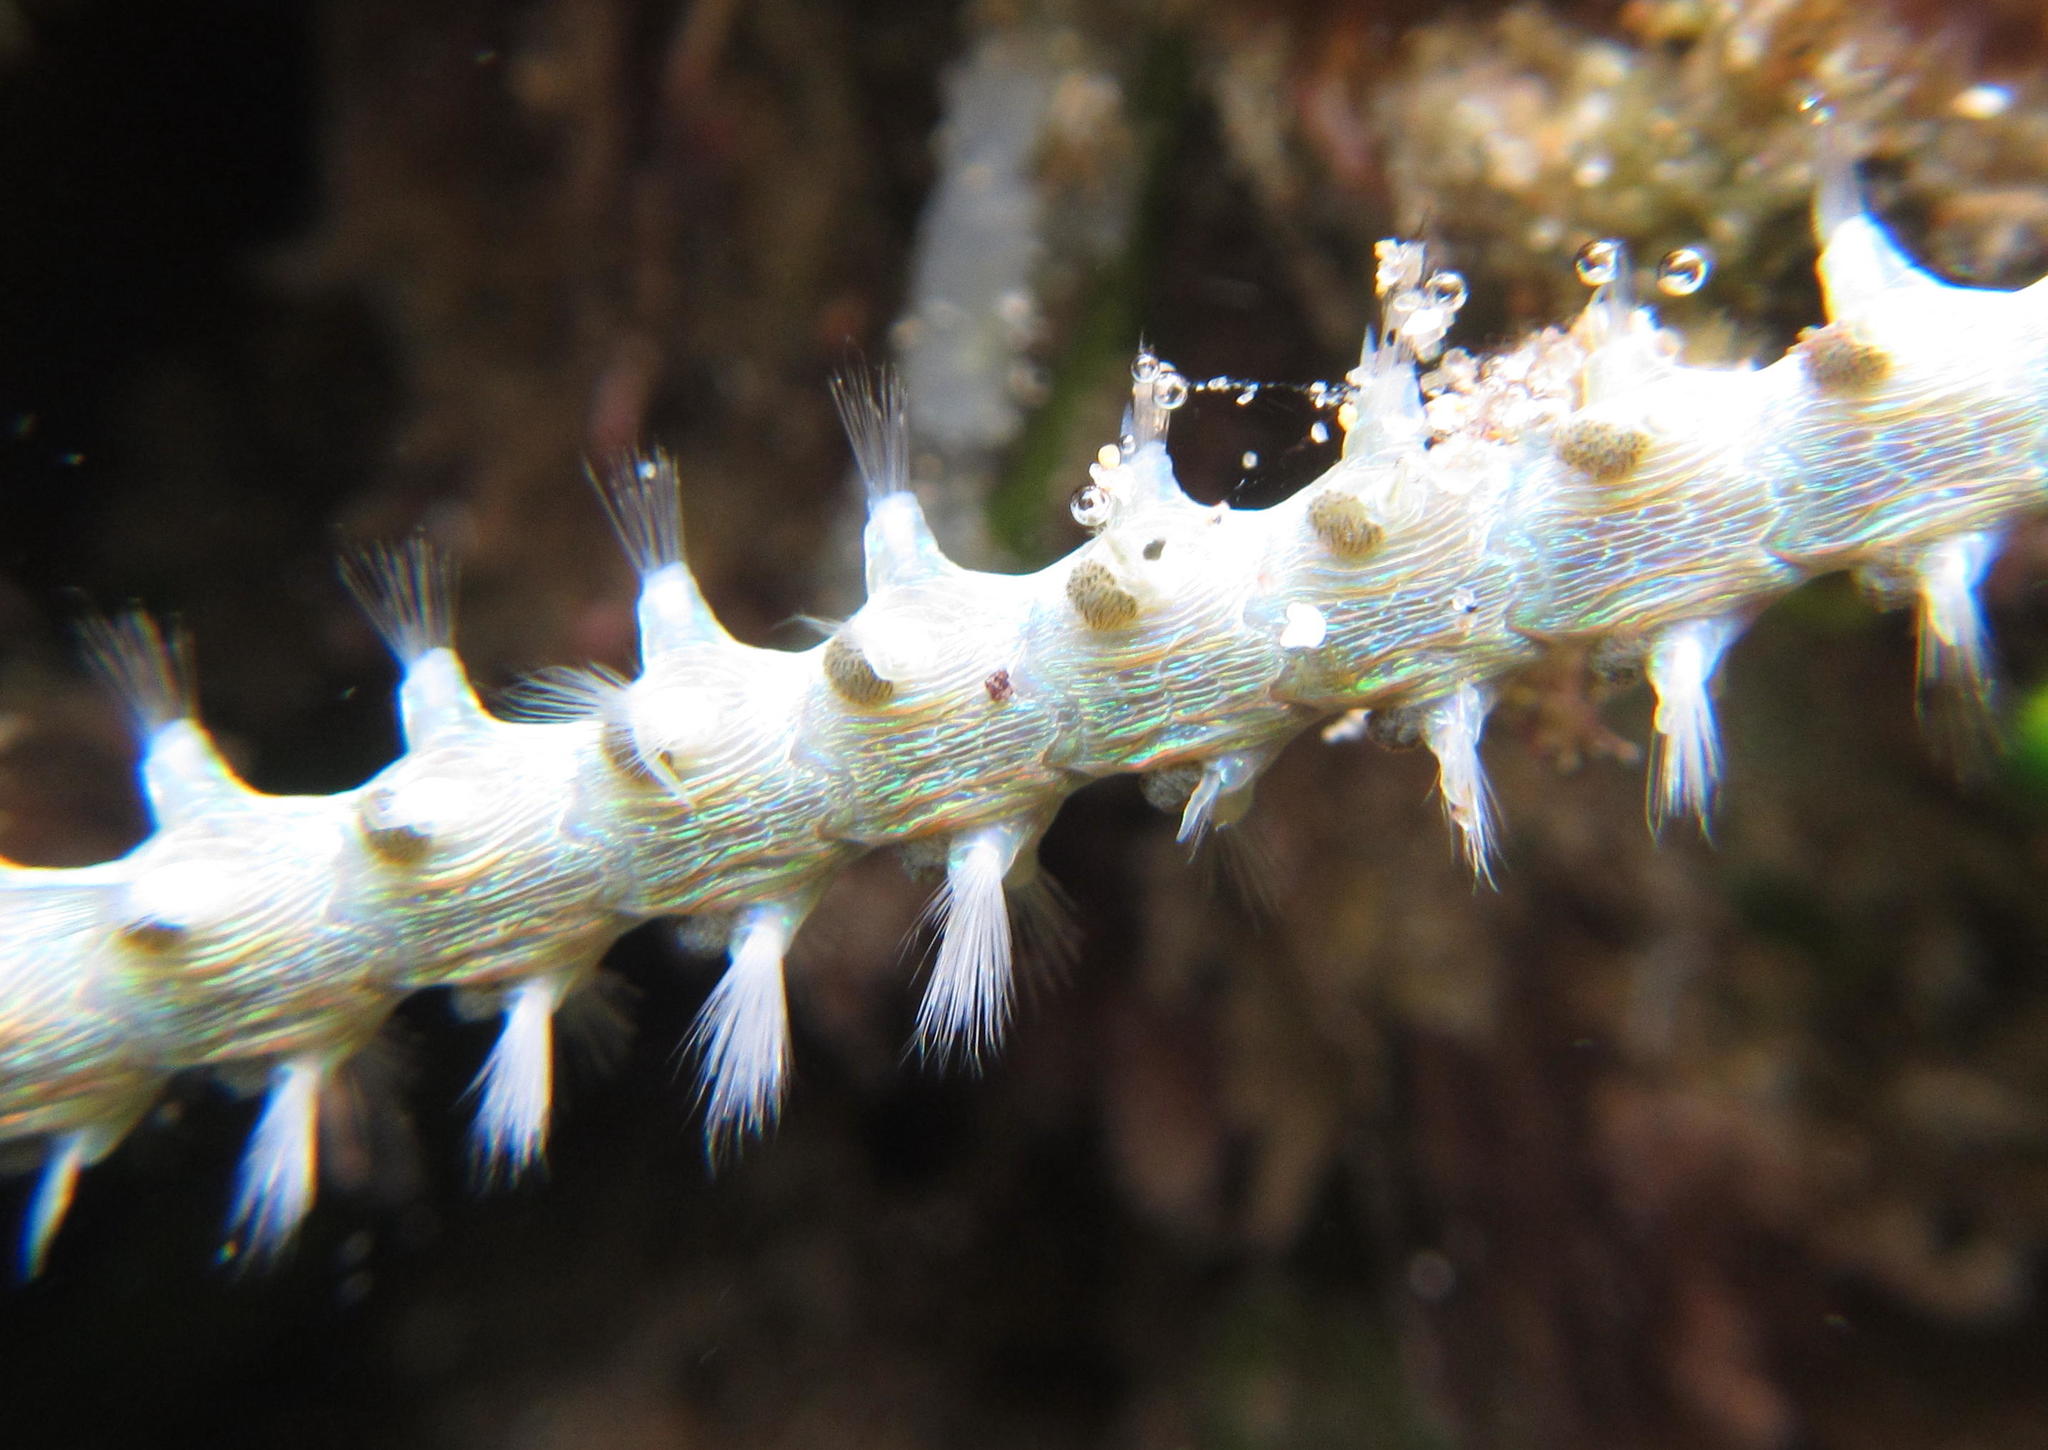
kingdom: Animalia
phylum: Annelida
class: Polychaeta
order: Amphinomida
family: Amphinomidae
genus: Eurythoe
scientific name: Eurythoe complanata
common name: Fireworm
